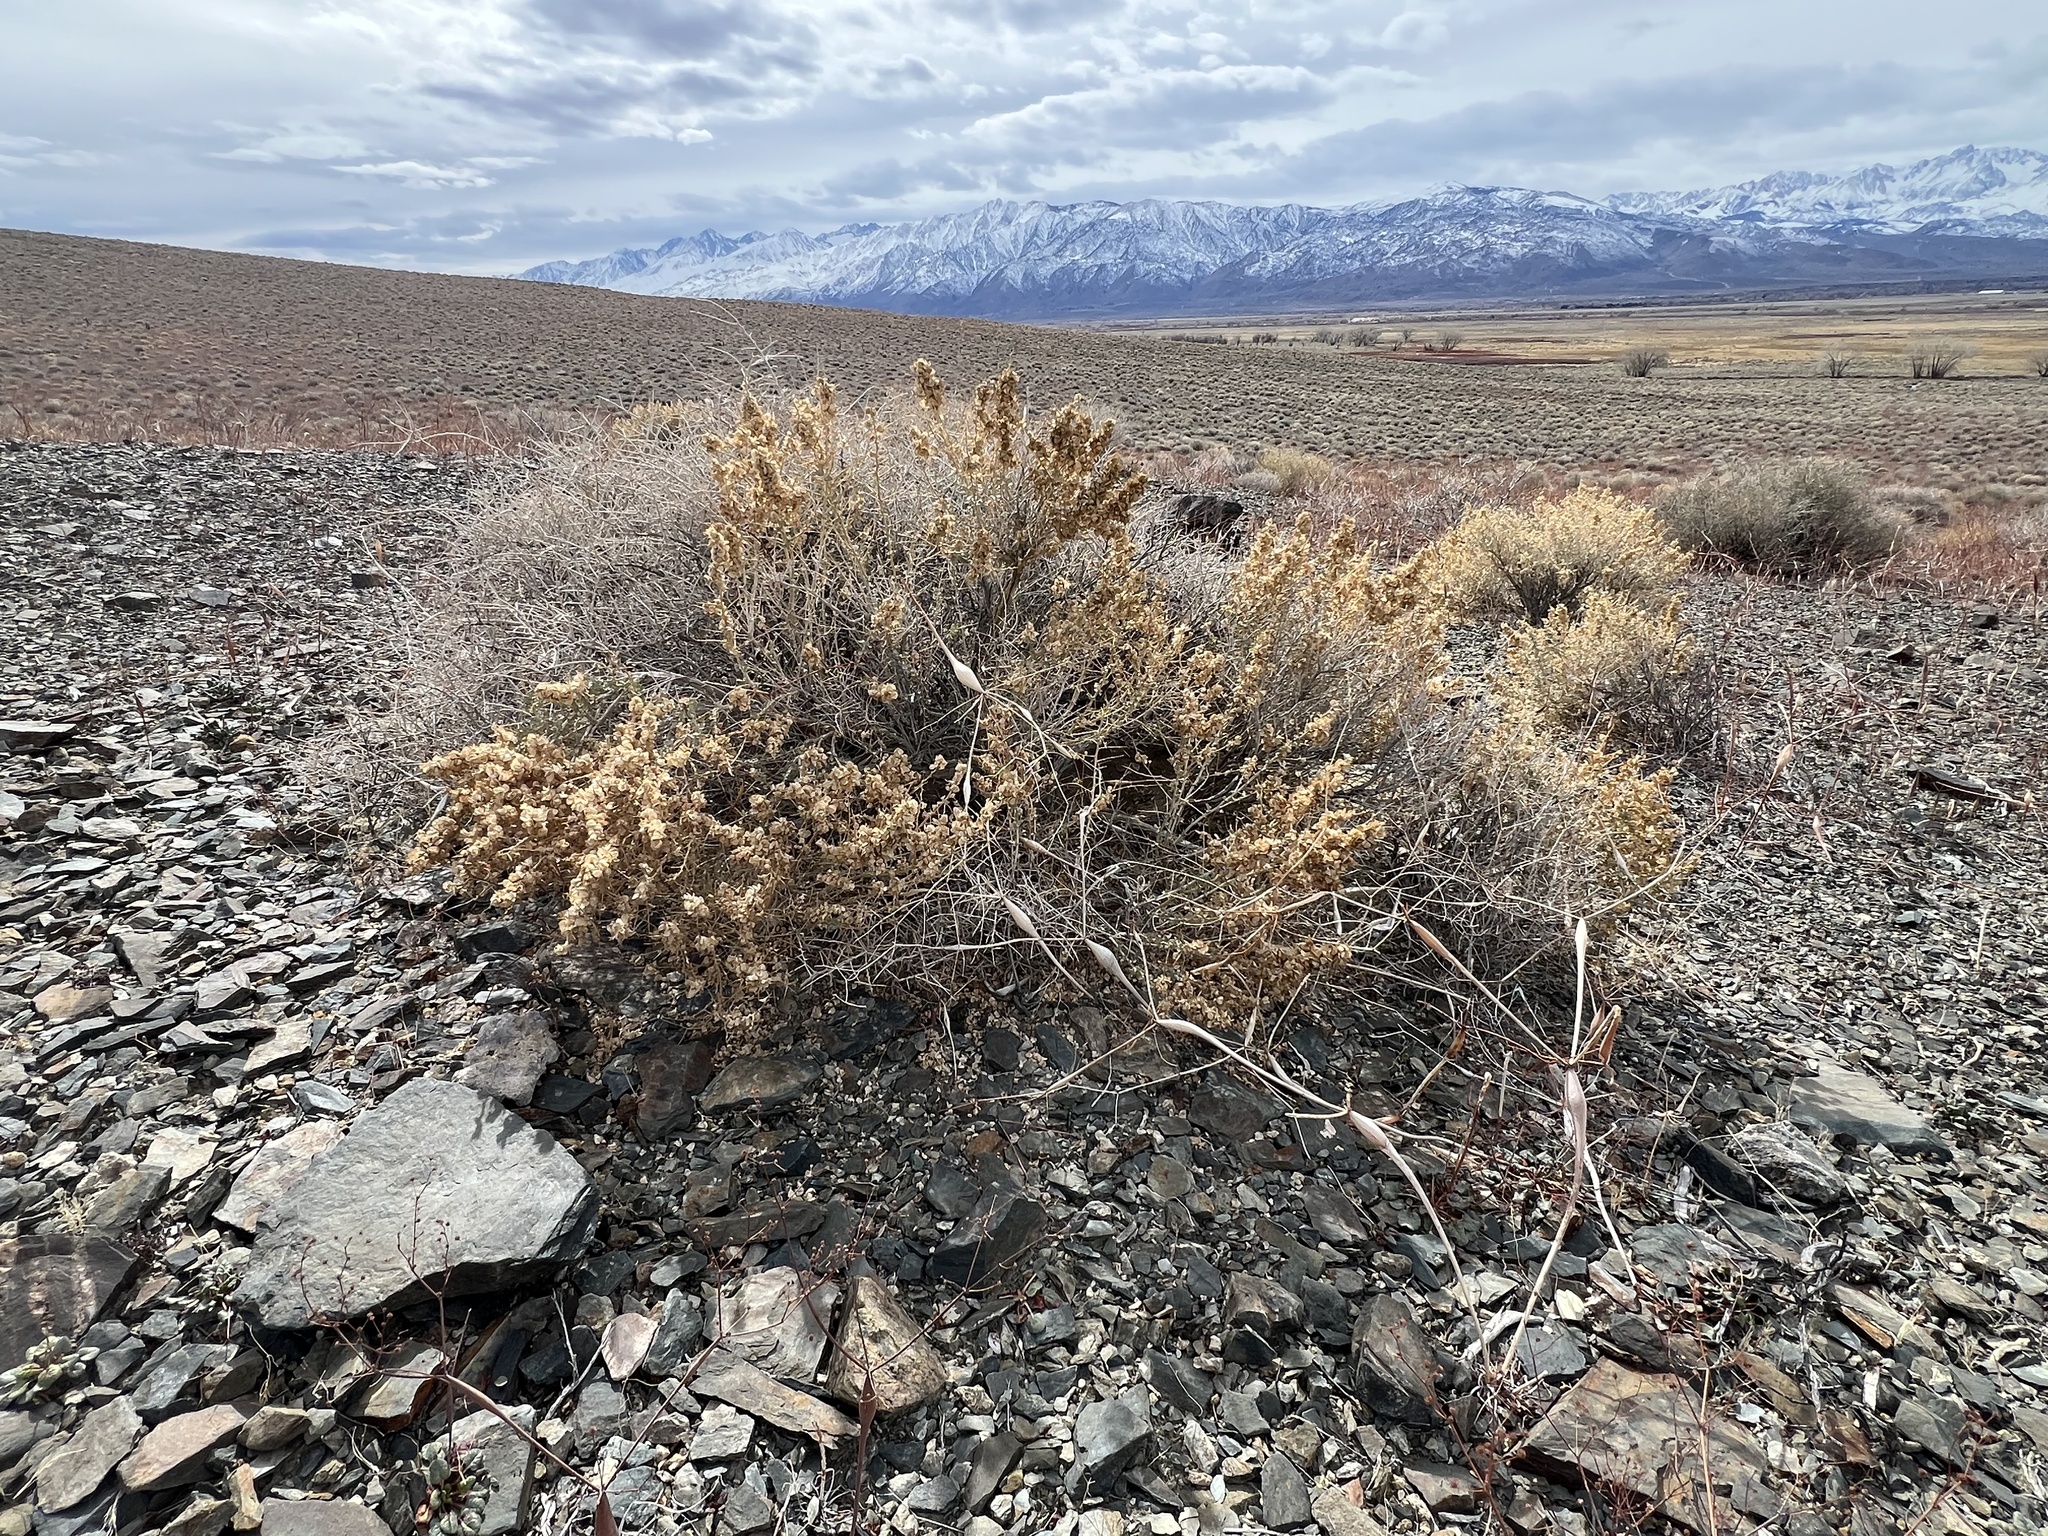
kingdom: Plantae
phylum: Tracheophyta
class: Magnoliopsida
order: Caryophyllales
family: Amaranthaceae
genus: Atriplex
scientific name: Atriplex confertifolia
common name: Shadscale
